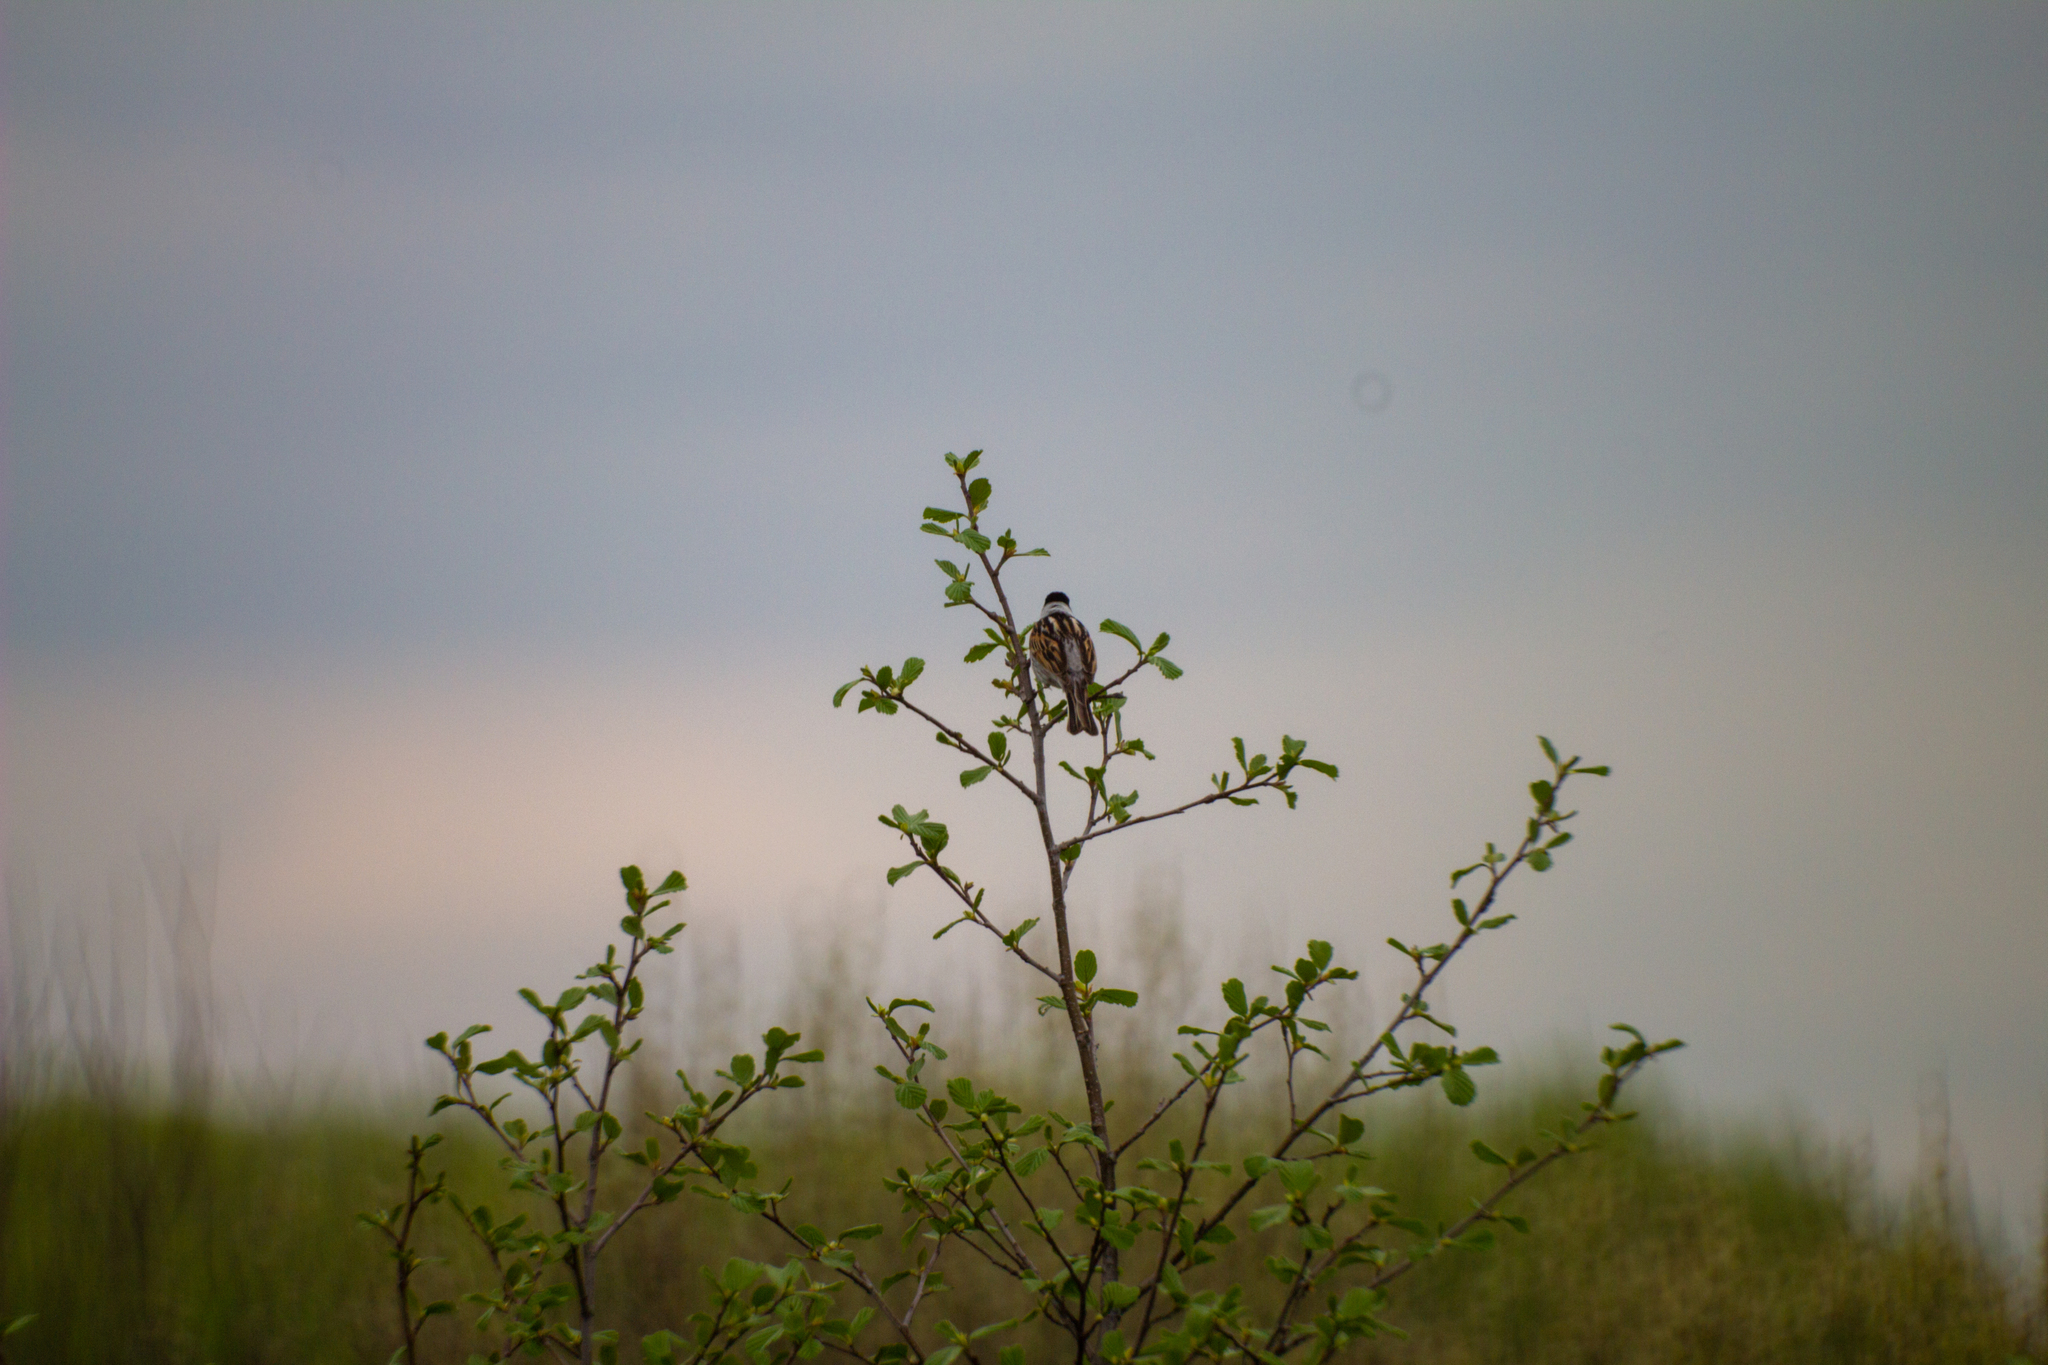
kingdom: Animalia
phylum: Chordata
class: Aves
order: Passeriformes
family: Emberizidae
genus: Emberiza
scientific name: Emberiza schoeniclus
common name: Reed bunting
